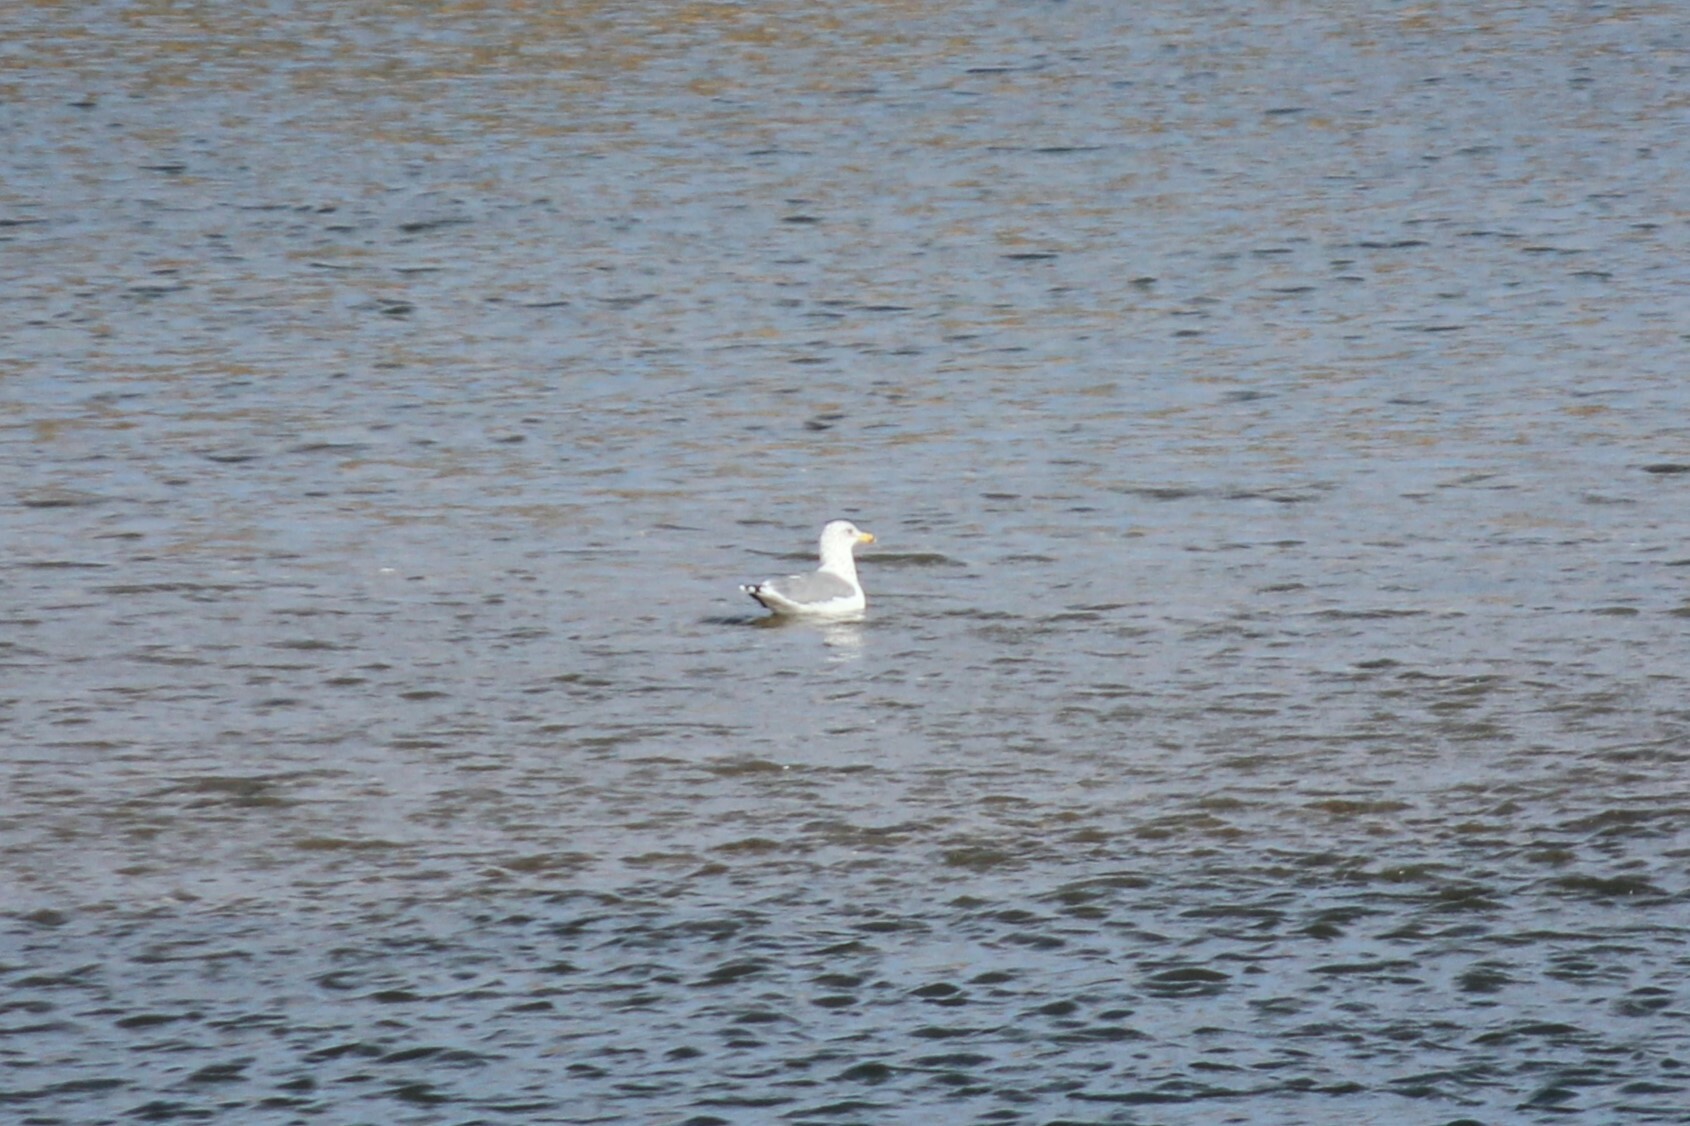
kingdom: Animalia
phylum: Chordata
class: Aves
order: Charadriiformes
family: Laridae
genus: Larus
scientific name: Larus californicus
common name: California gull
